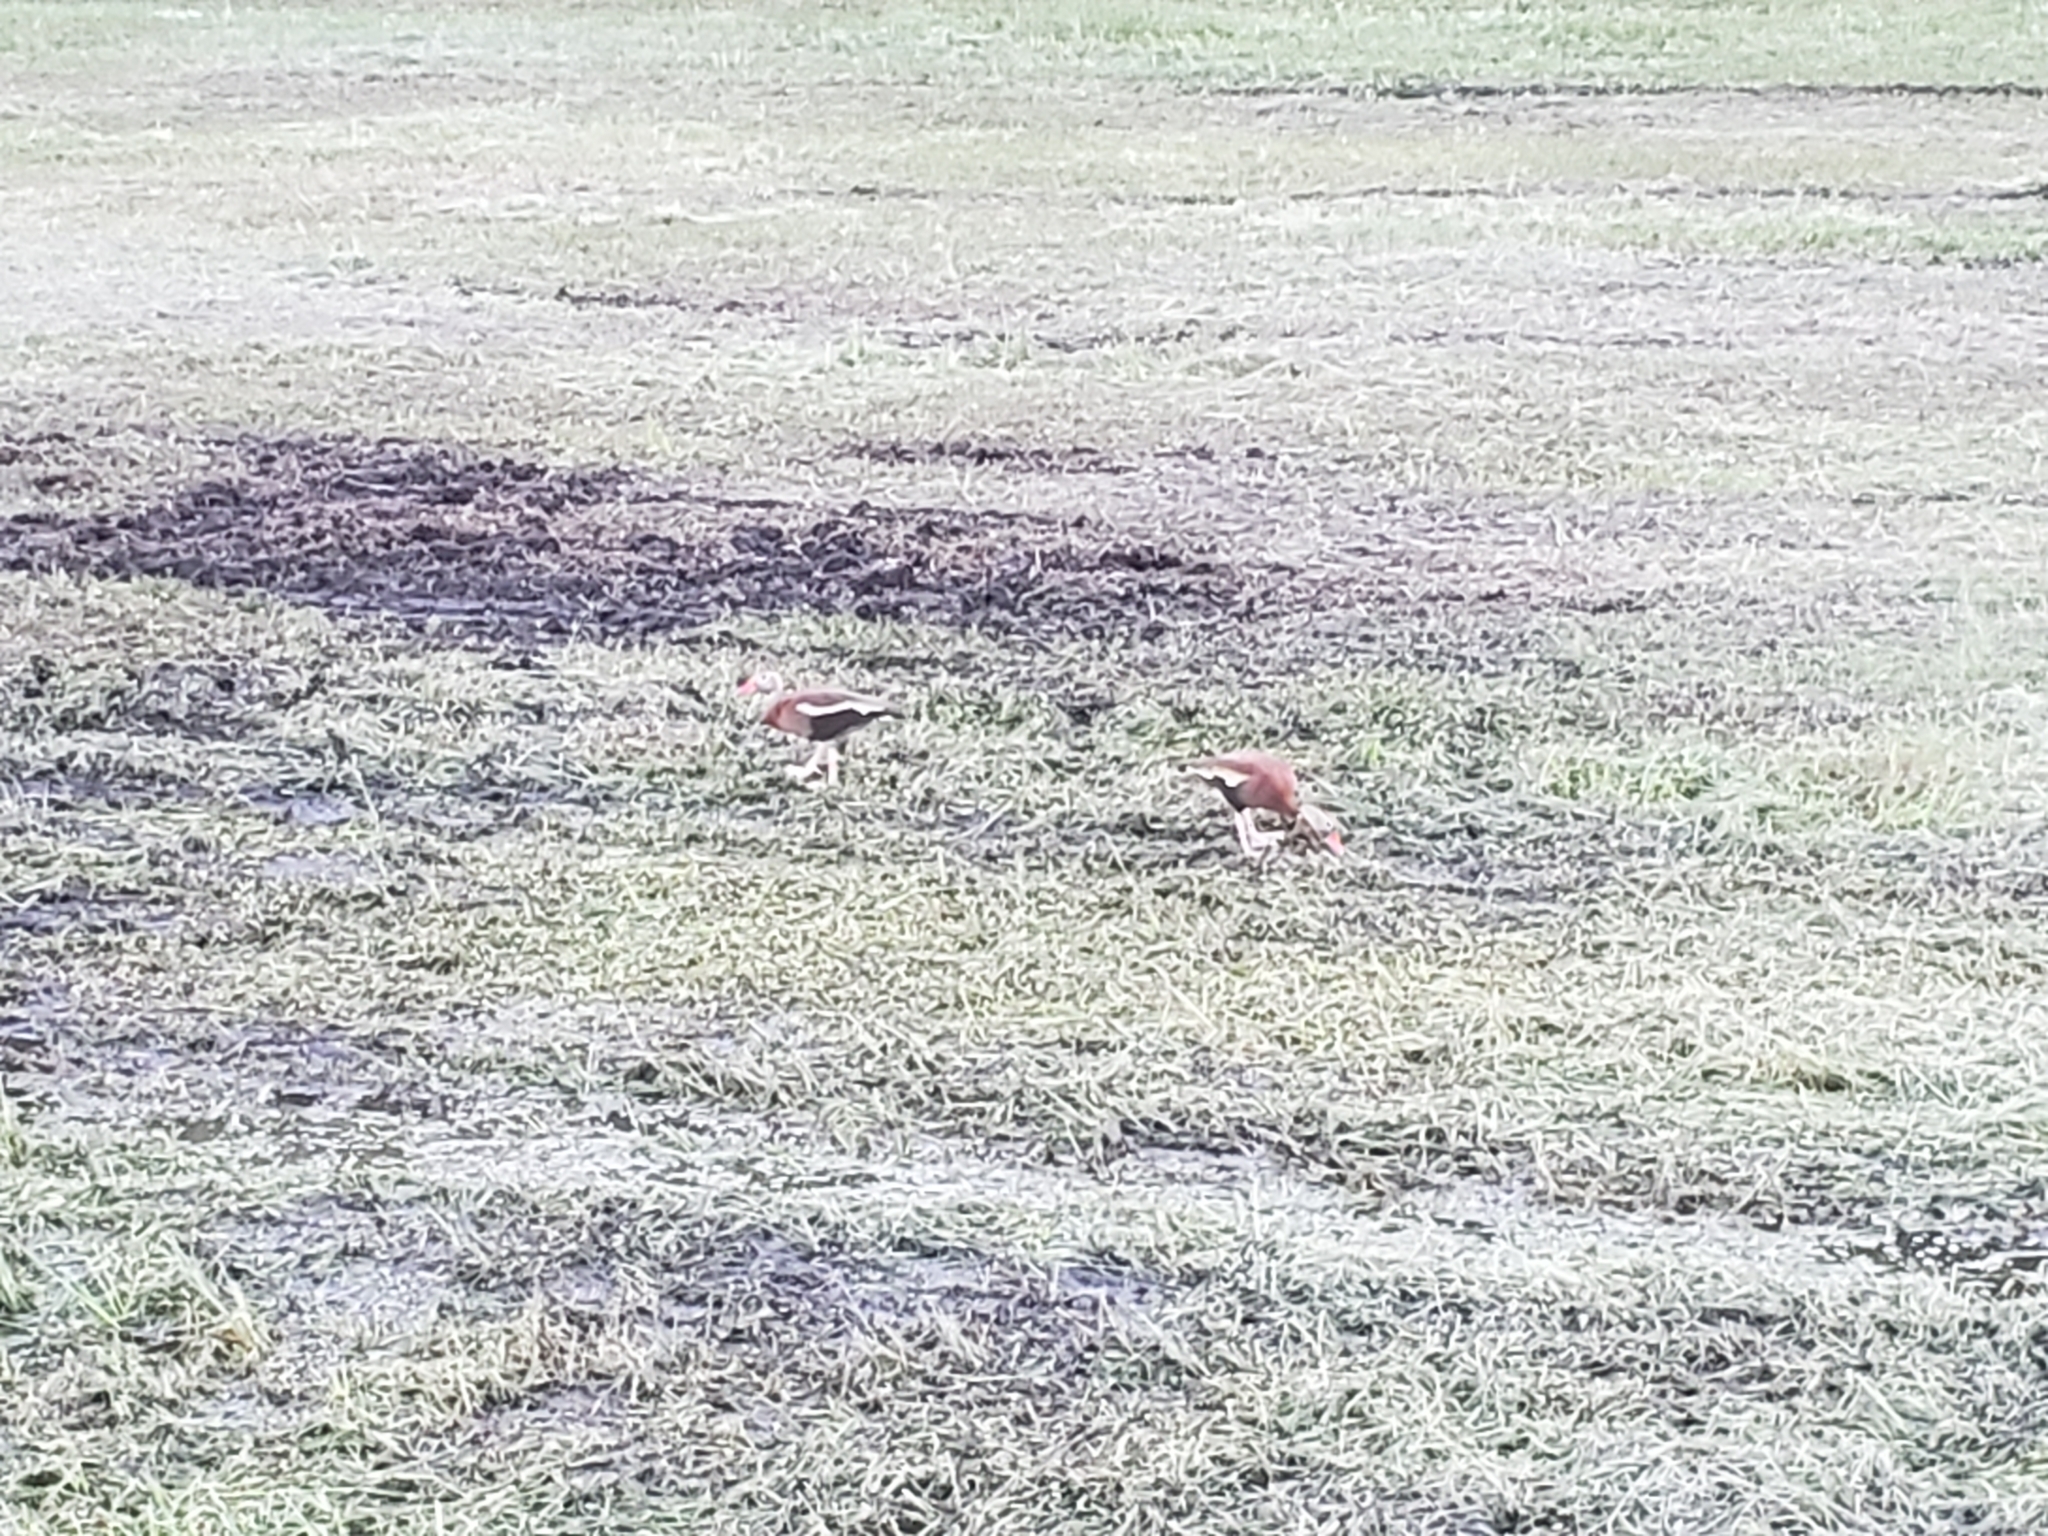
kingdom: Animalia
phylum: Chordata
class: Aves
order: Anseriformes
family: Anatidae
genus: Dendrocygna
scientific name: Dendrocygna autumnalis
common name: Black-bellied whistling duck
